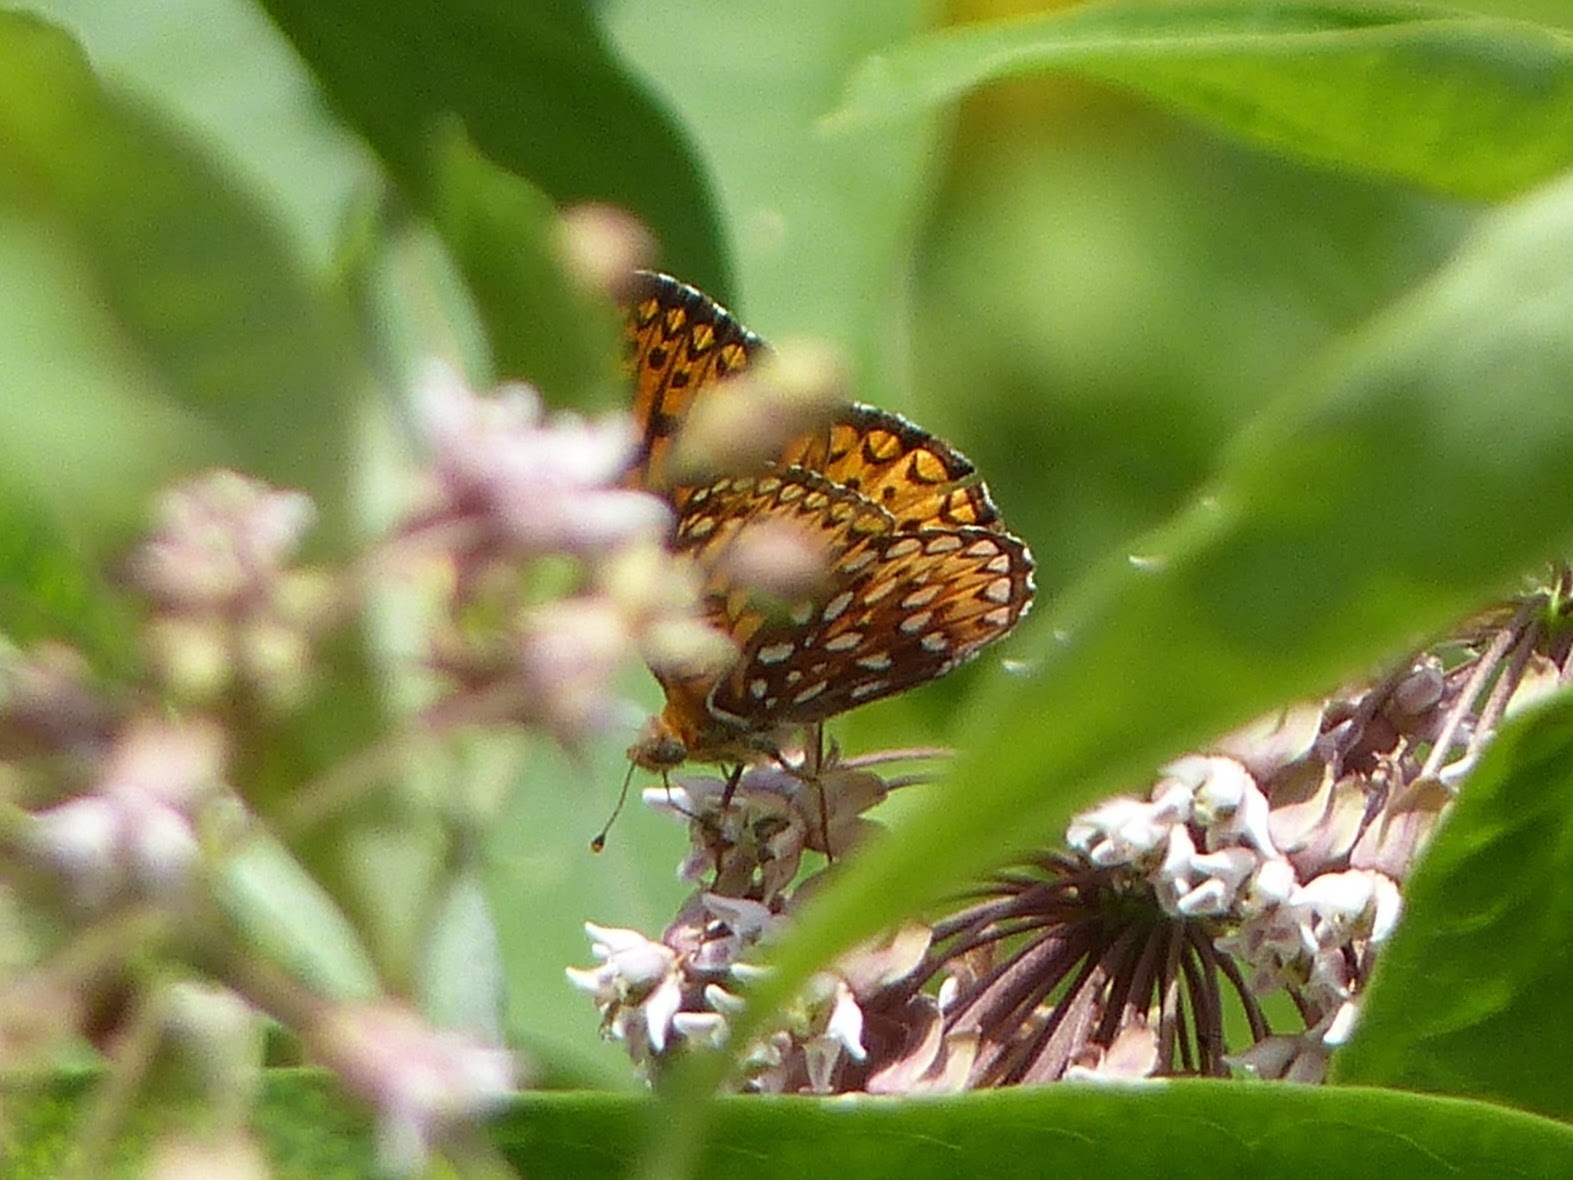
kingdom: Animalia
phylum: Arthropoda
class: Insecta
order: Lepidoptera
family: Nymphalidae
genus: Speyeria
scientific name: Speyeria atlantis
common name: Atlantis fritillary
